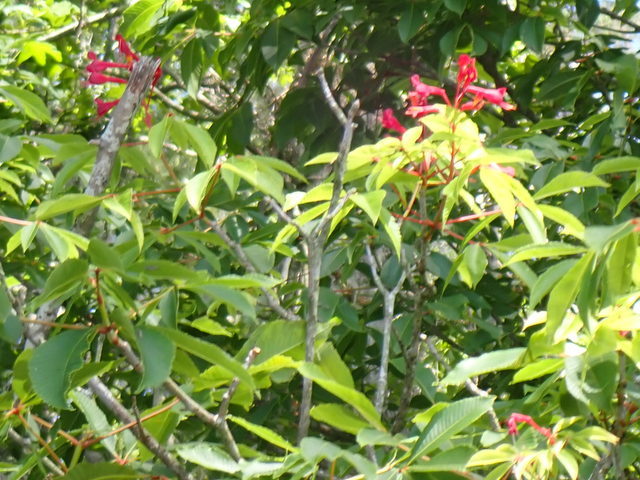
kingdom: Plantae
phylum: Tracheophyta
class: Magnoliopsida
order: Sapindales
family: Sapindaceae
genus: Aesculus
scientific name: Aesculus pavia
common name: Red buckeye
